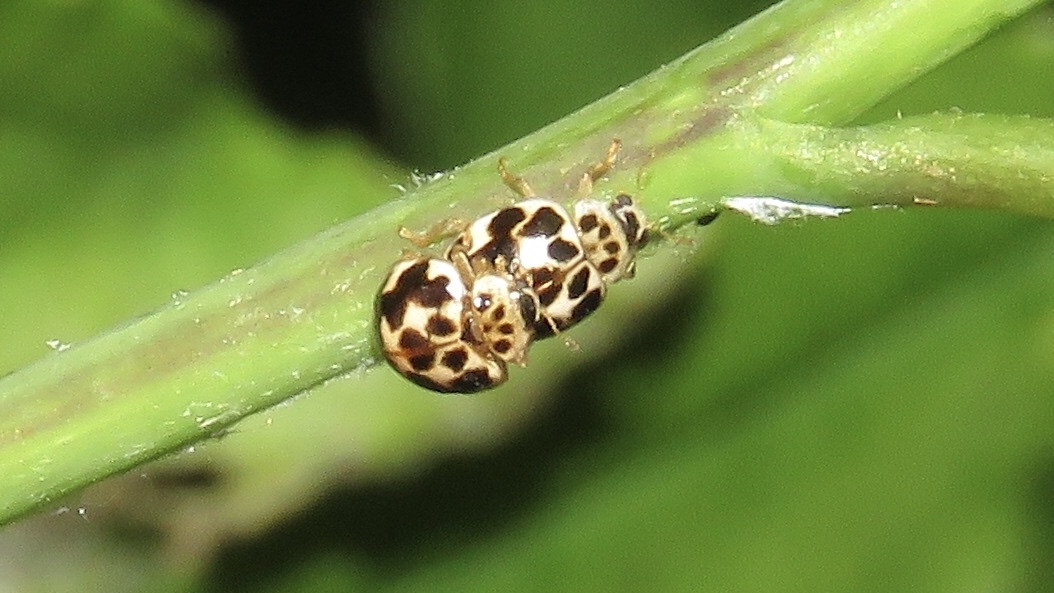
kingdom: Animalia
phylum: Arthropoda
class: Insecta
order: Coleoptera
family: Coccinellidae
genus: Psyllobora
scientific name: Psyllobora vigintimaculata
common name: Ladybird beetle
